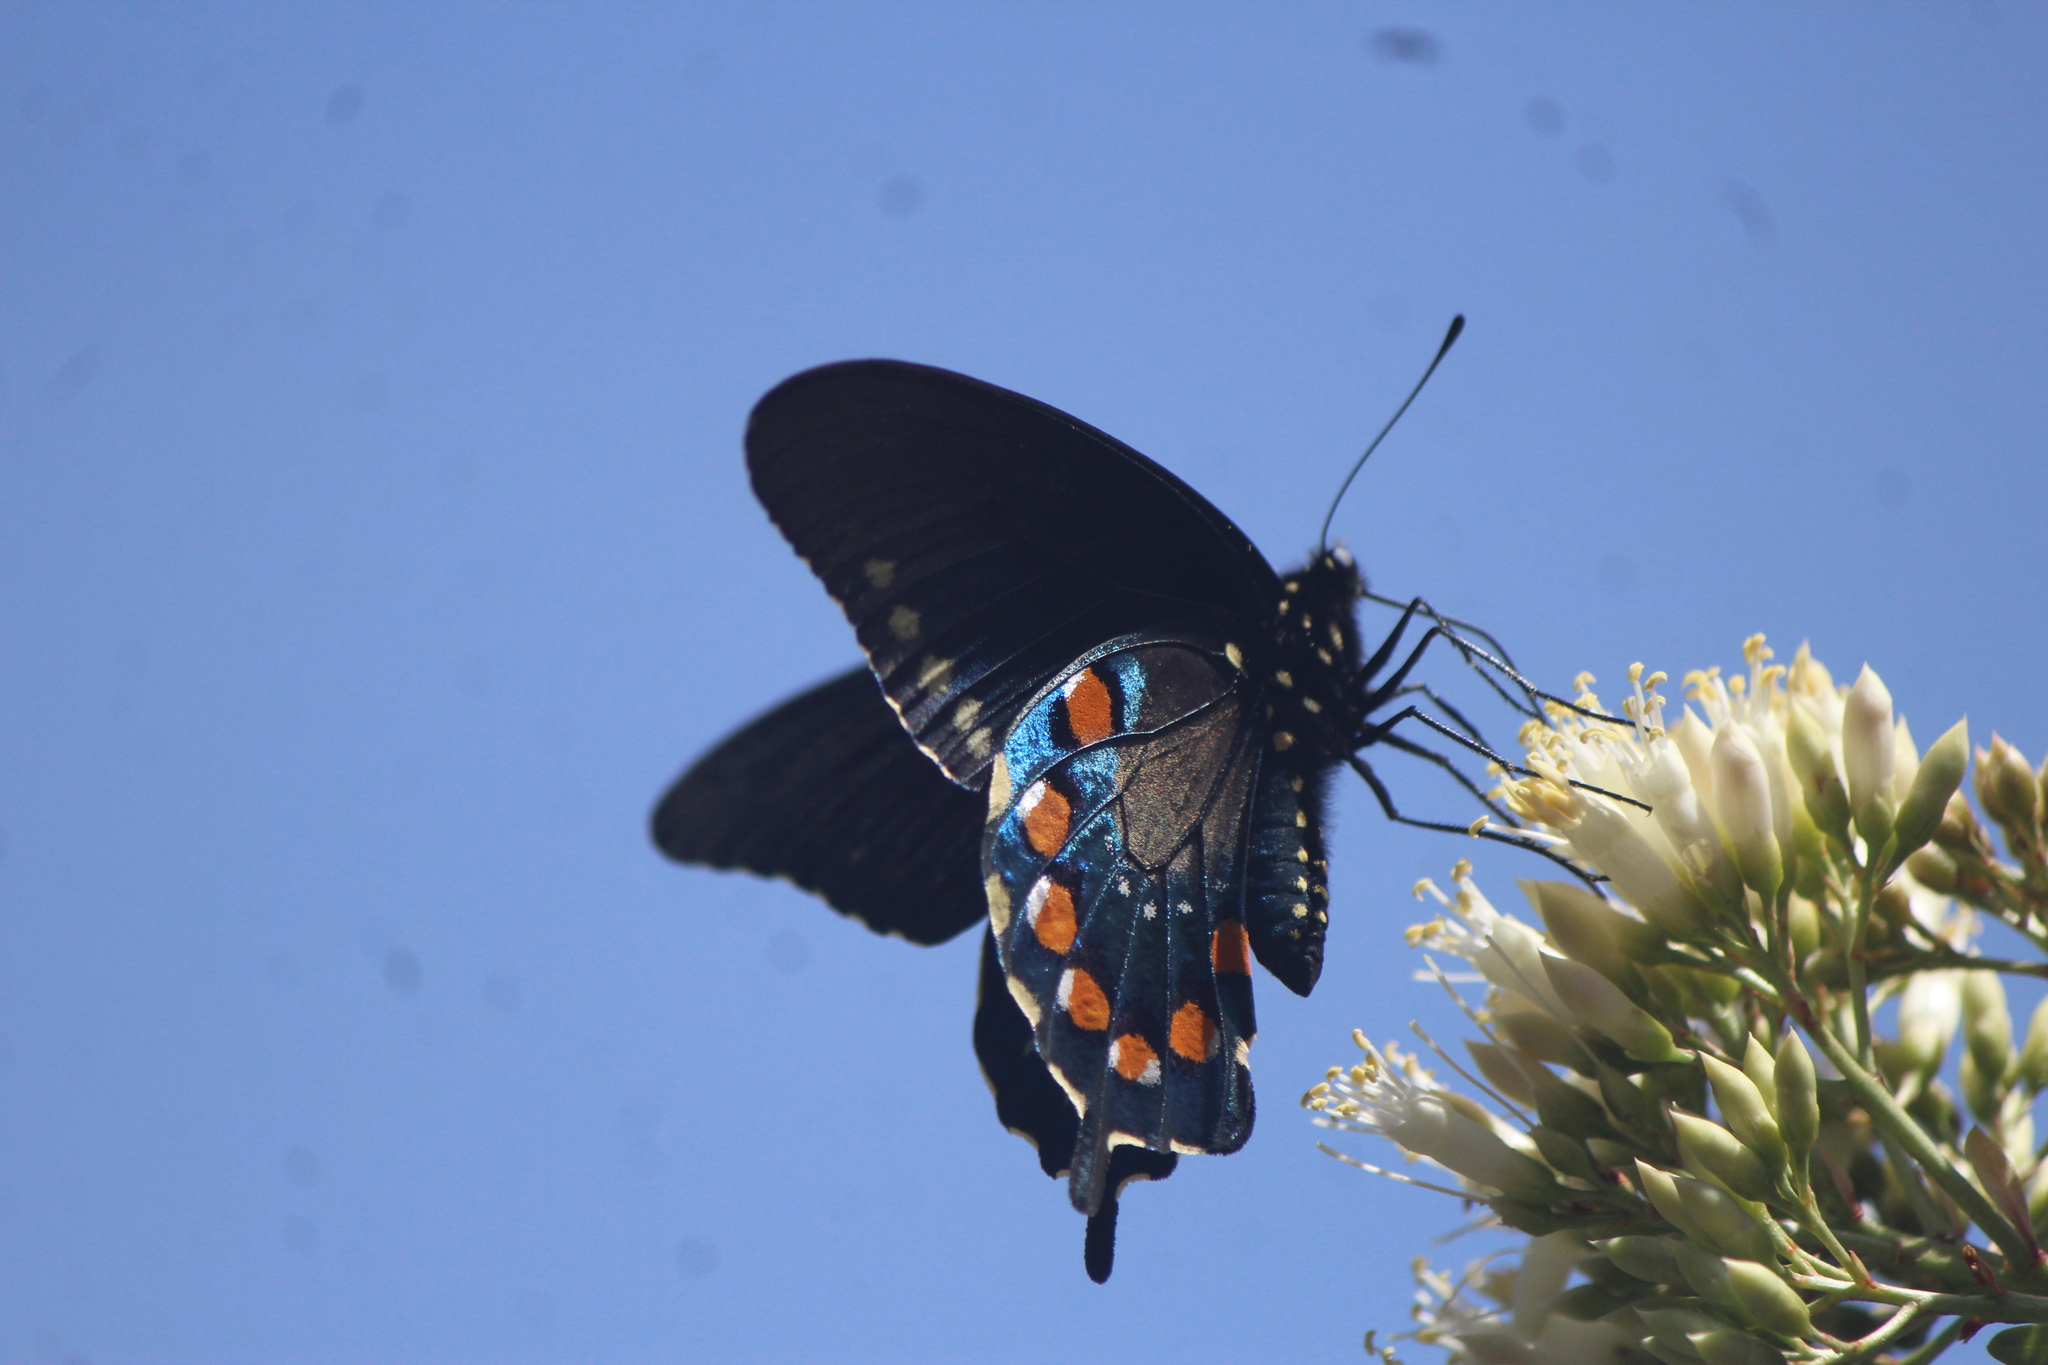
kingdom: Animalia
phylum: Arthropoda
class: Insecta
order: Lepidoptera
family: Papilionidae
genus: Battus
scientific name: Battus philenor
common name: Pipevine swallowtail
